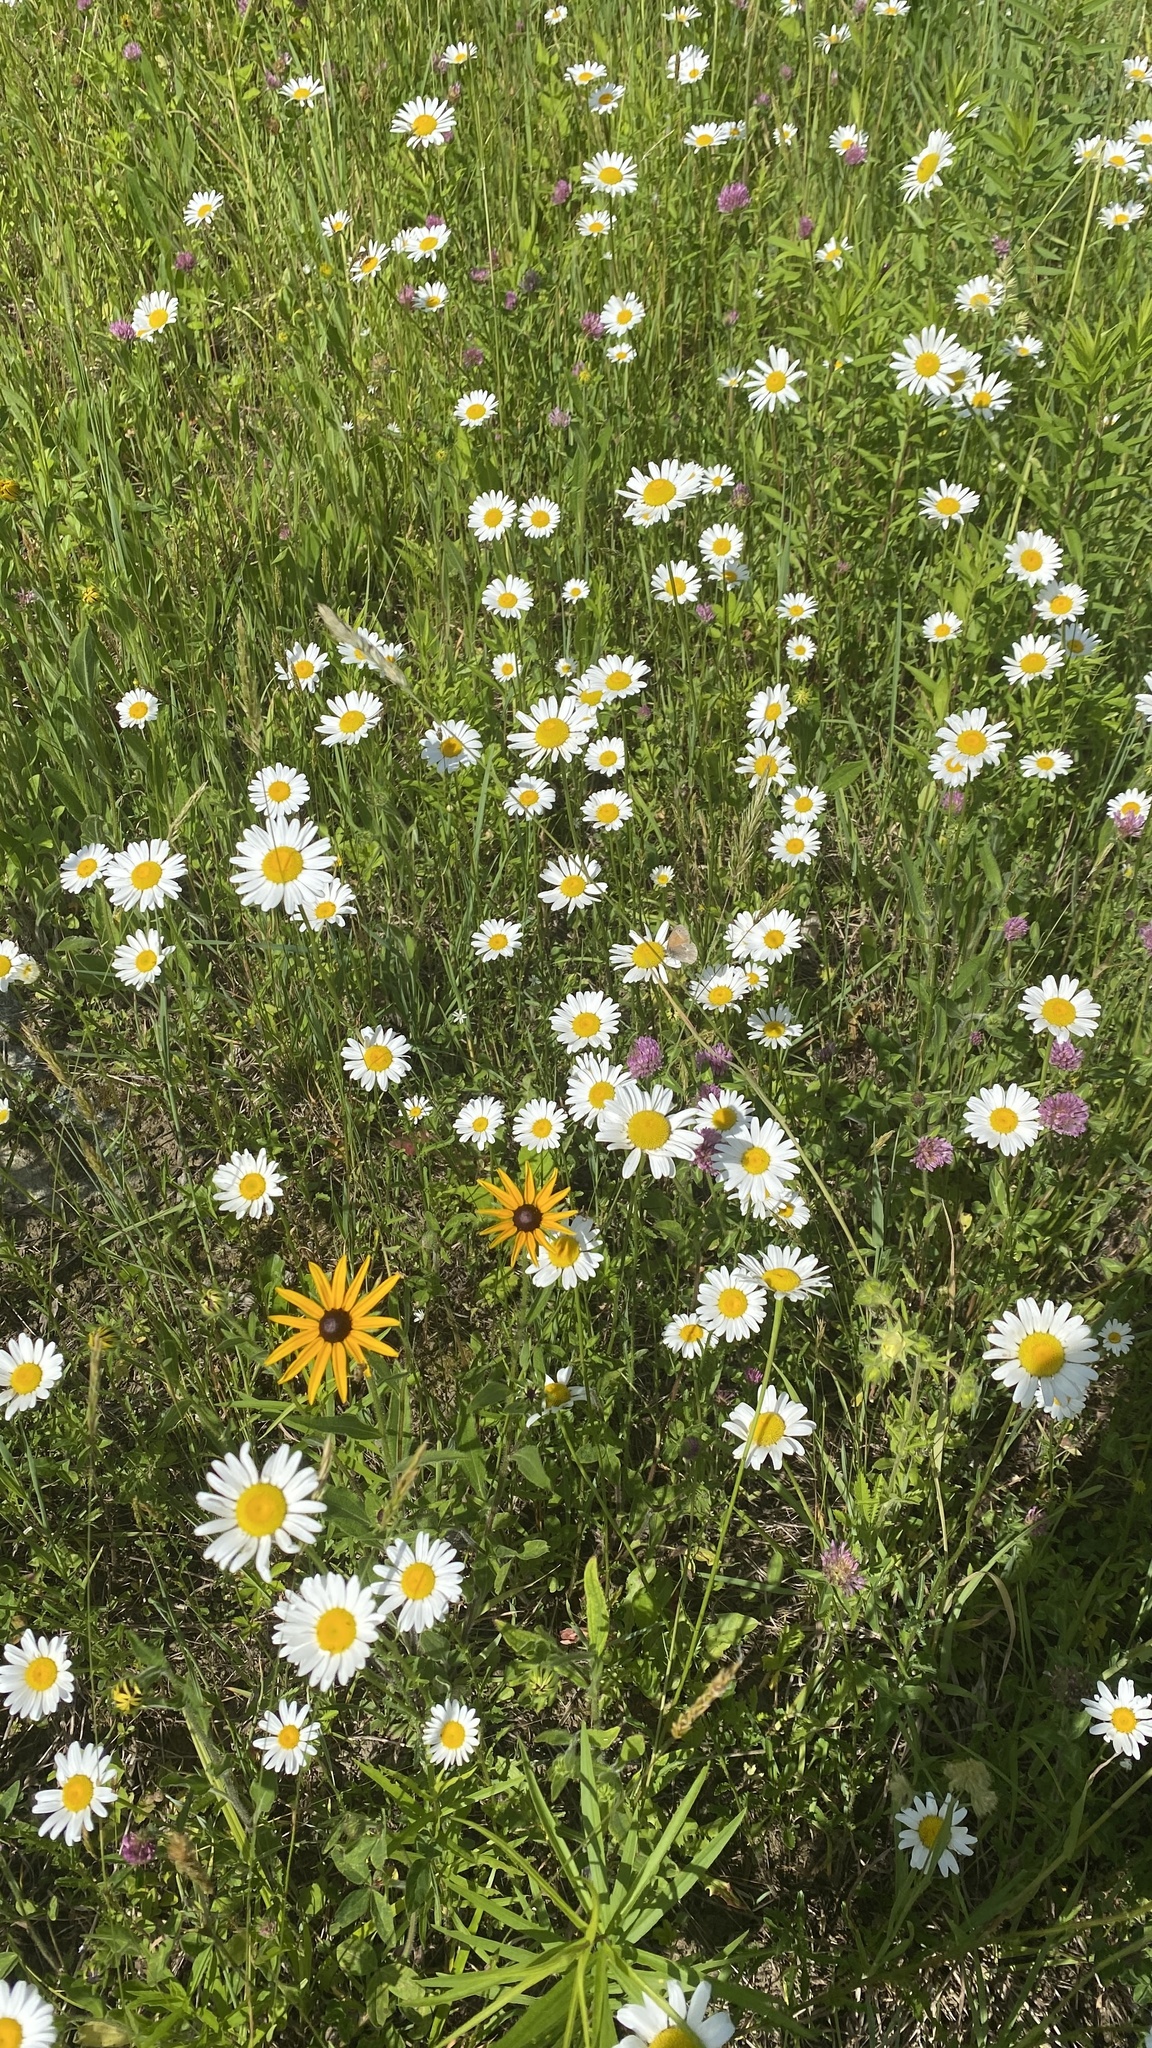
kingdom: Plantae
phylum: Tracheophyta
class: Magnoliopsida
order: Asterales
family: Asteraceae
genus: Leucanthemum
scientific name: Leucanthemum vulgare
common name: Oxeye daisy
